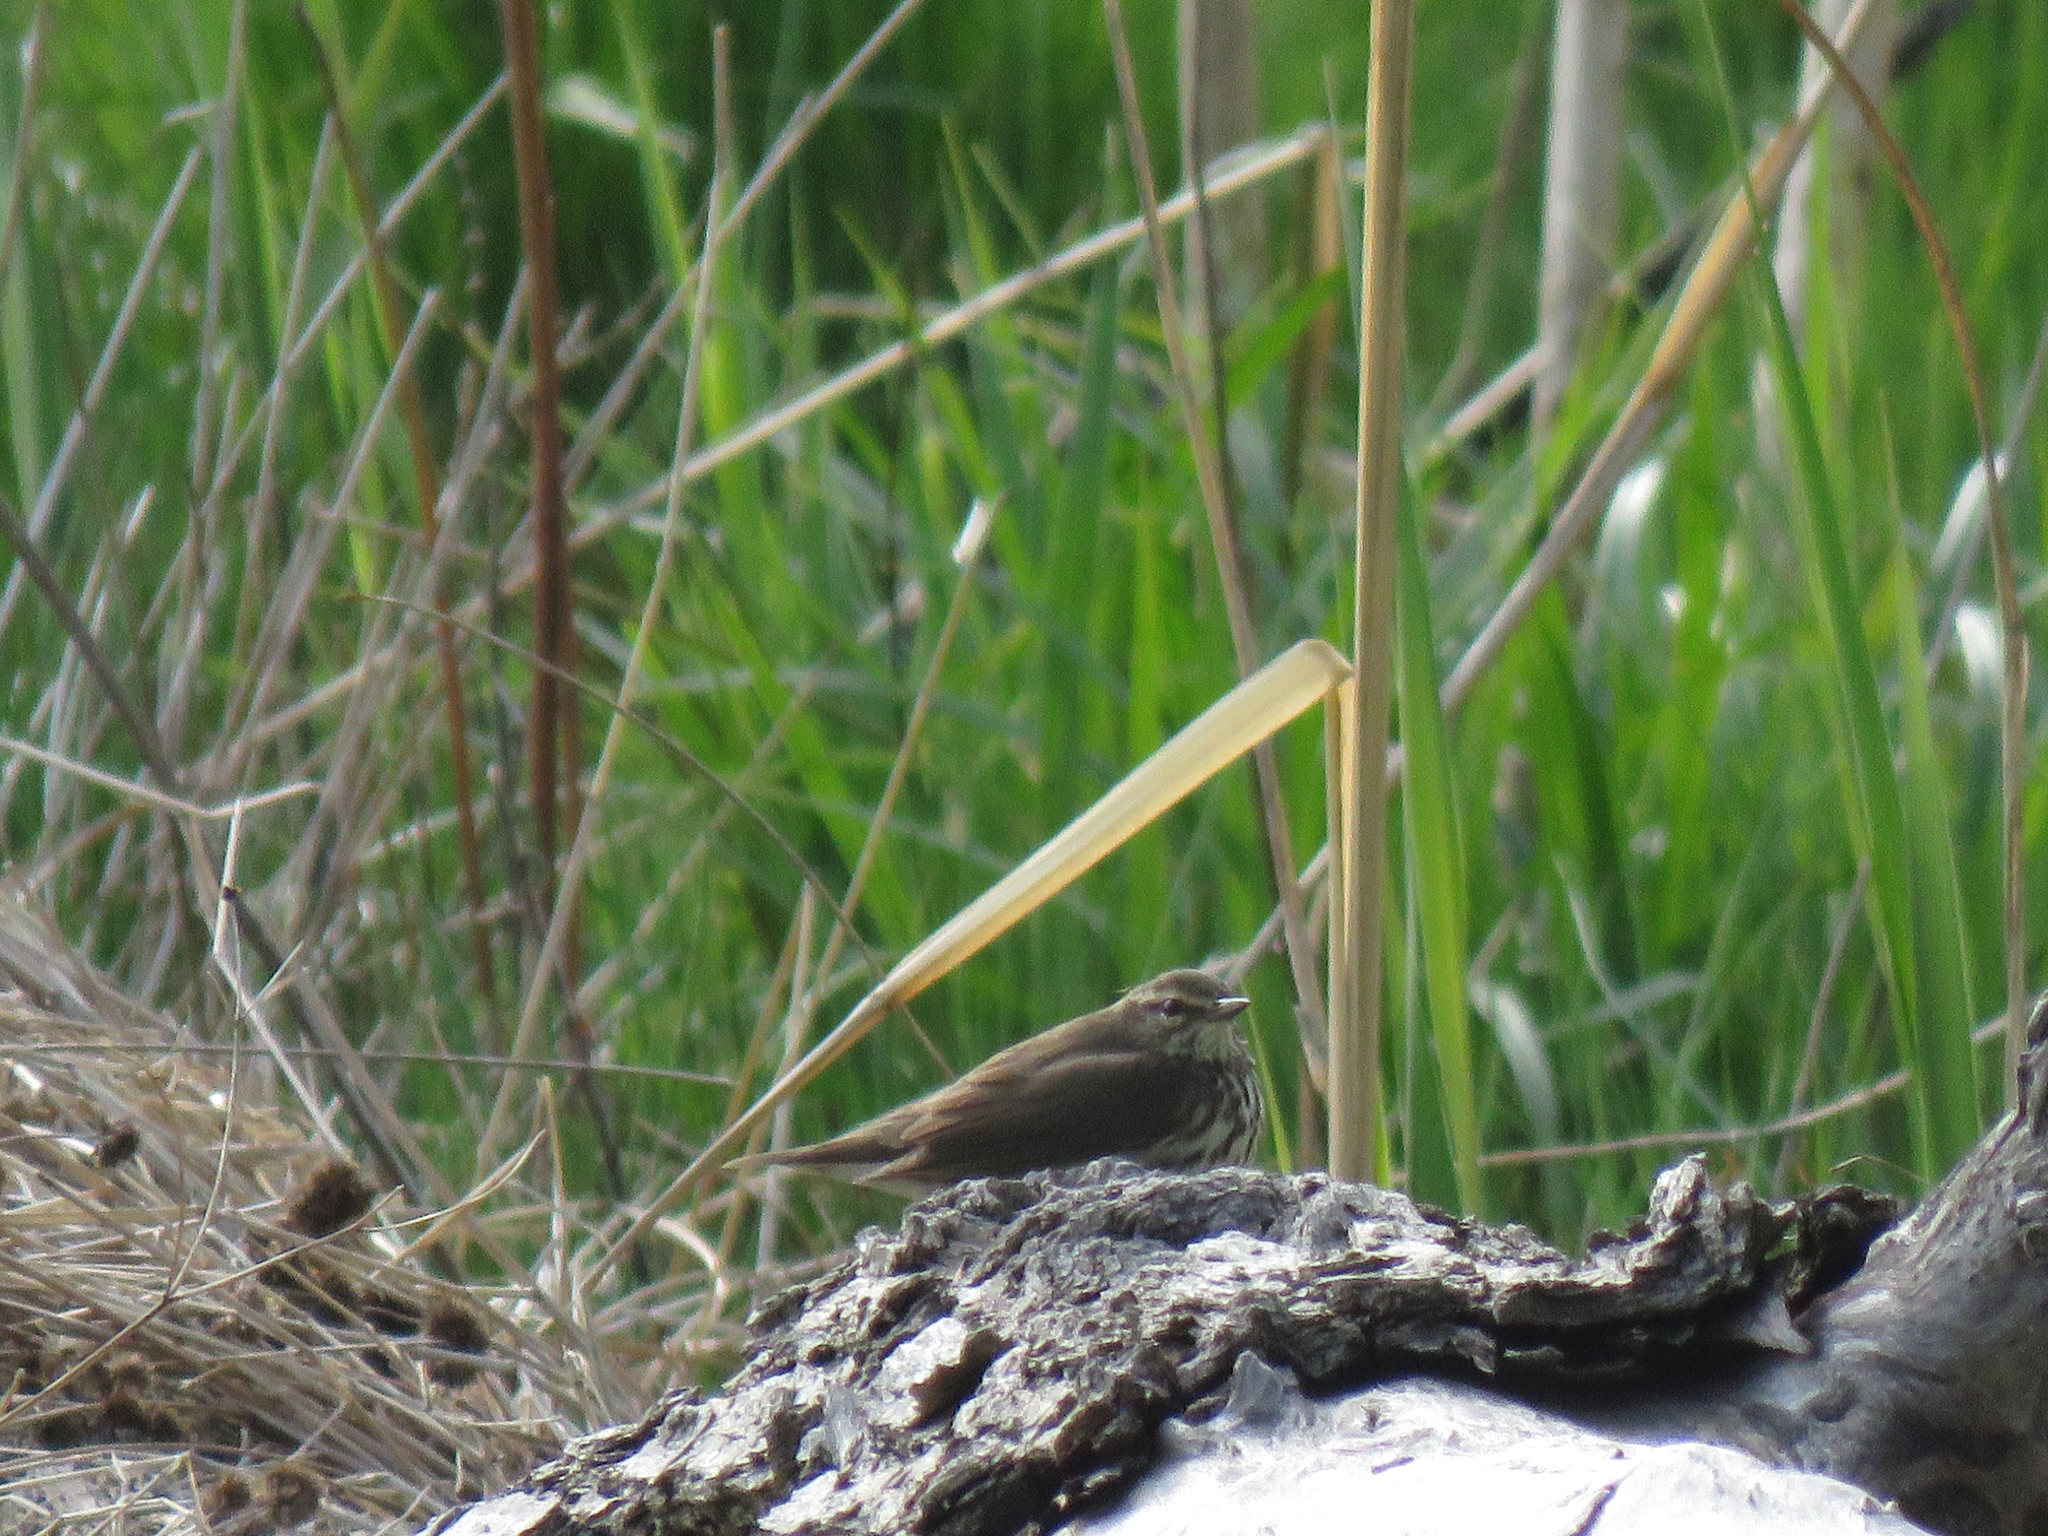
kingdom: Animalia
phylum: Chordata
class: Aves
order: Passeriformes
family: Parulidae
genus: Parkesia
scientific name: Parkesia noveboracensis
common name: Northern waterthrush
